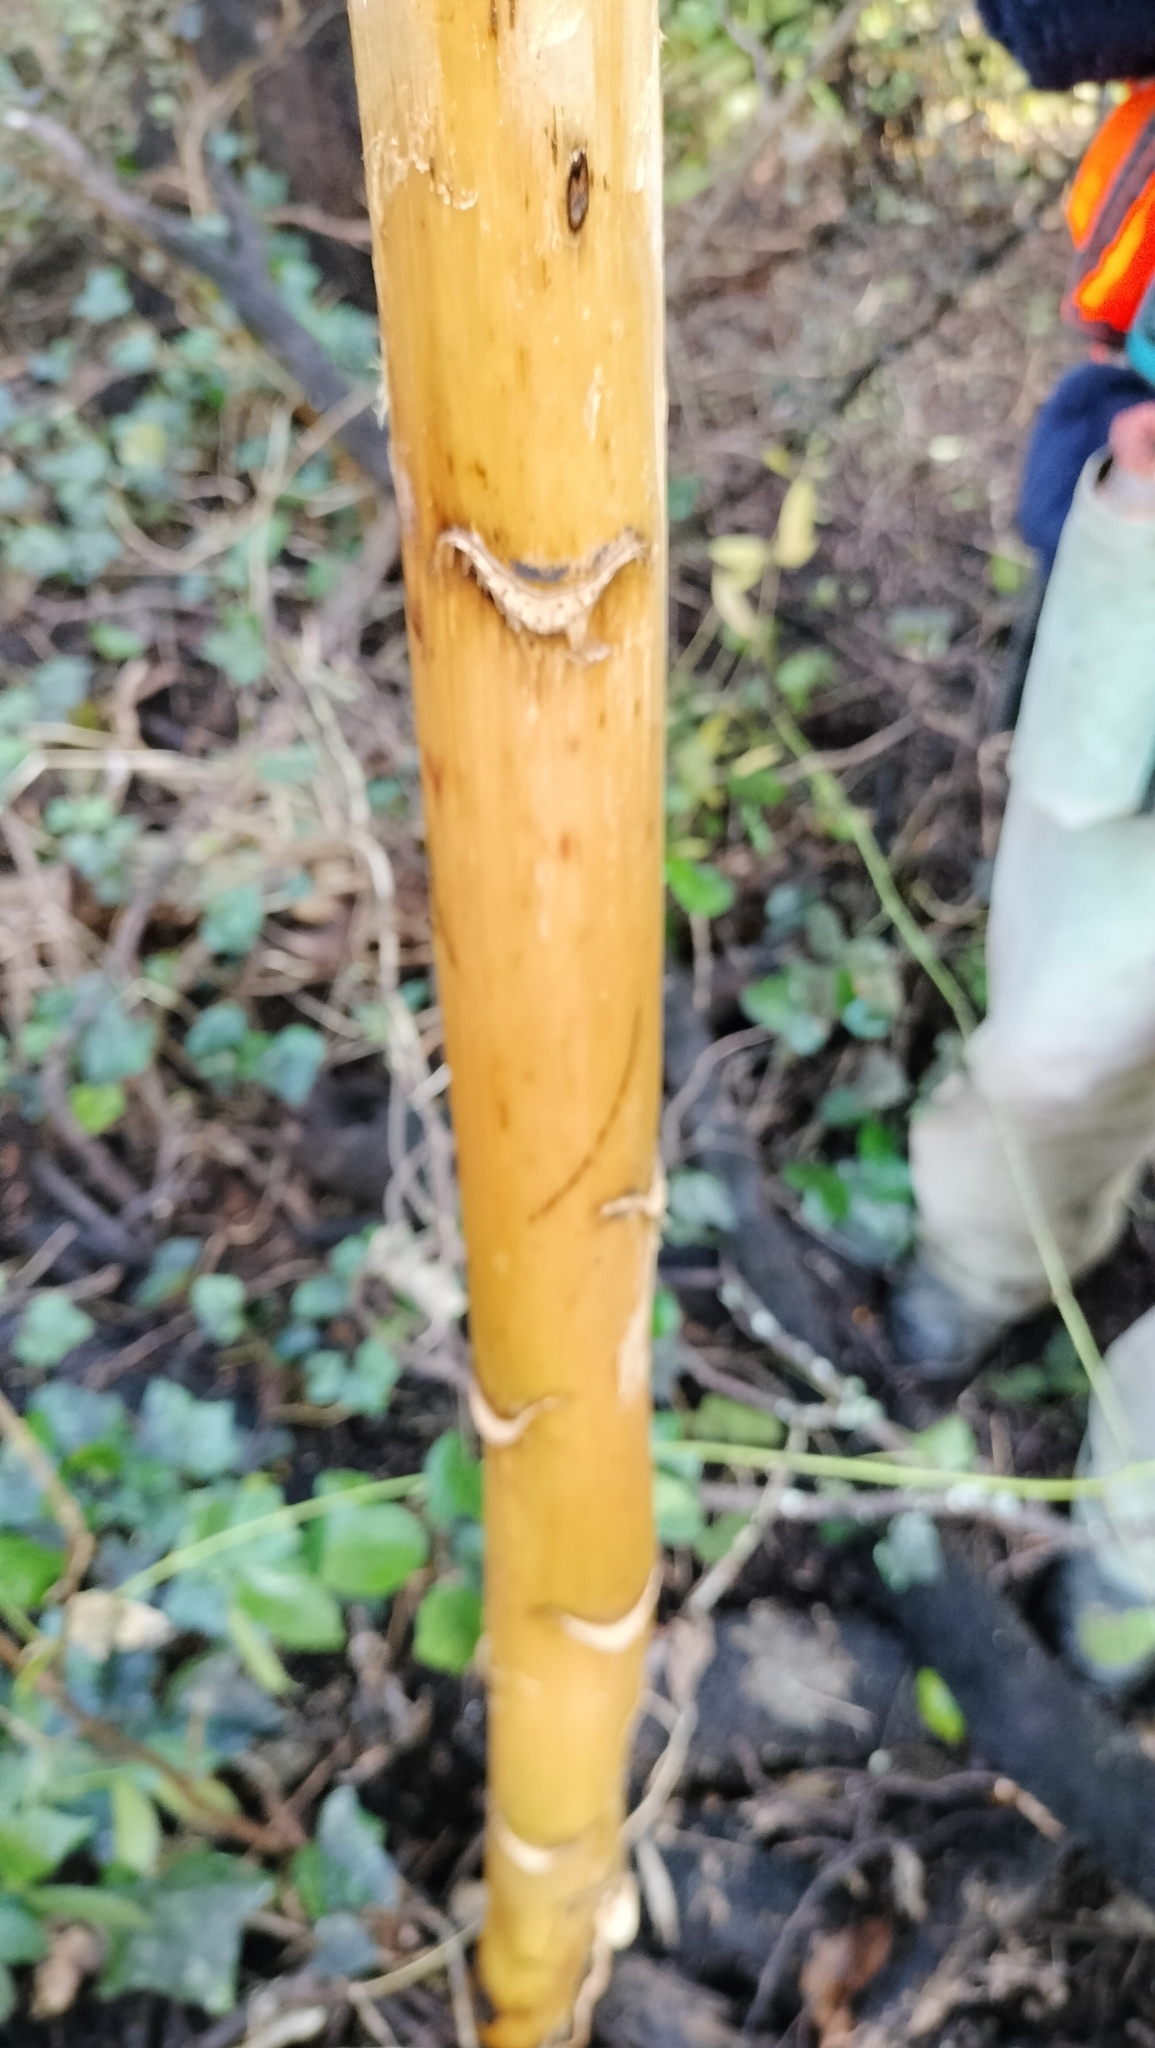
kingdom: Plantae
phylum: Tracheophyta
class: Liliopsida
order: Liliales
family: Liliaceae
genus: Cardiocrinum
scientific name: Cardiocrinum giganteum
